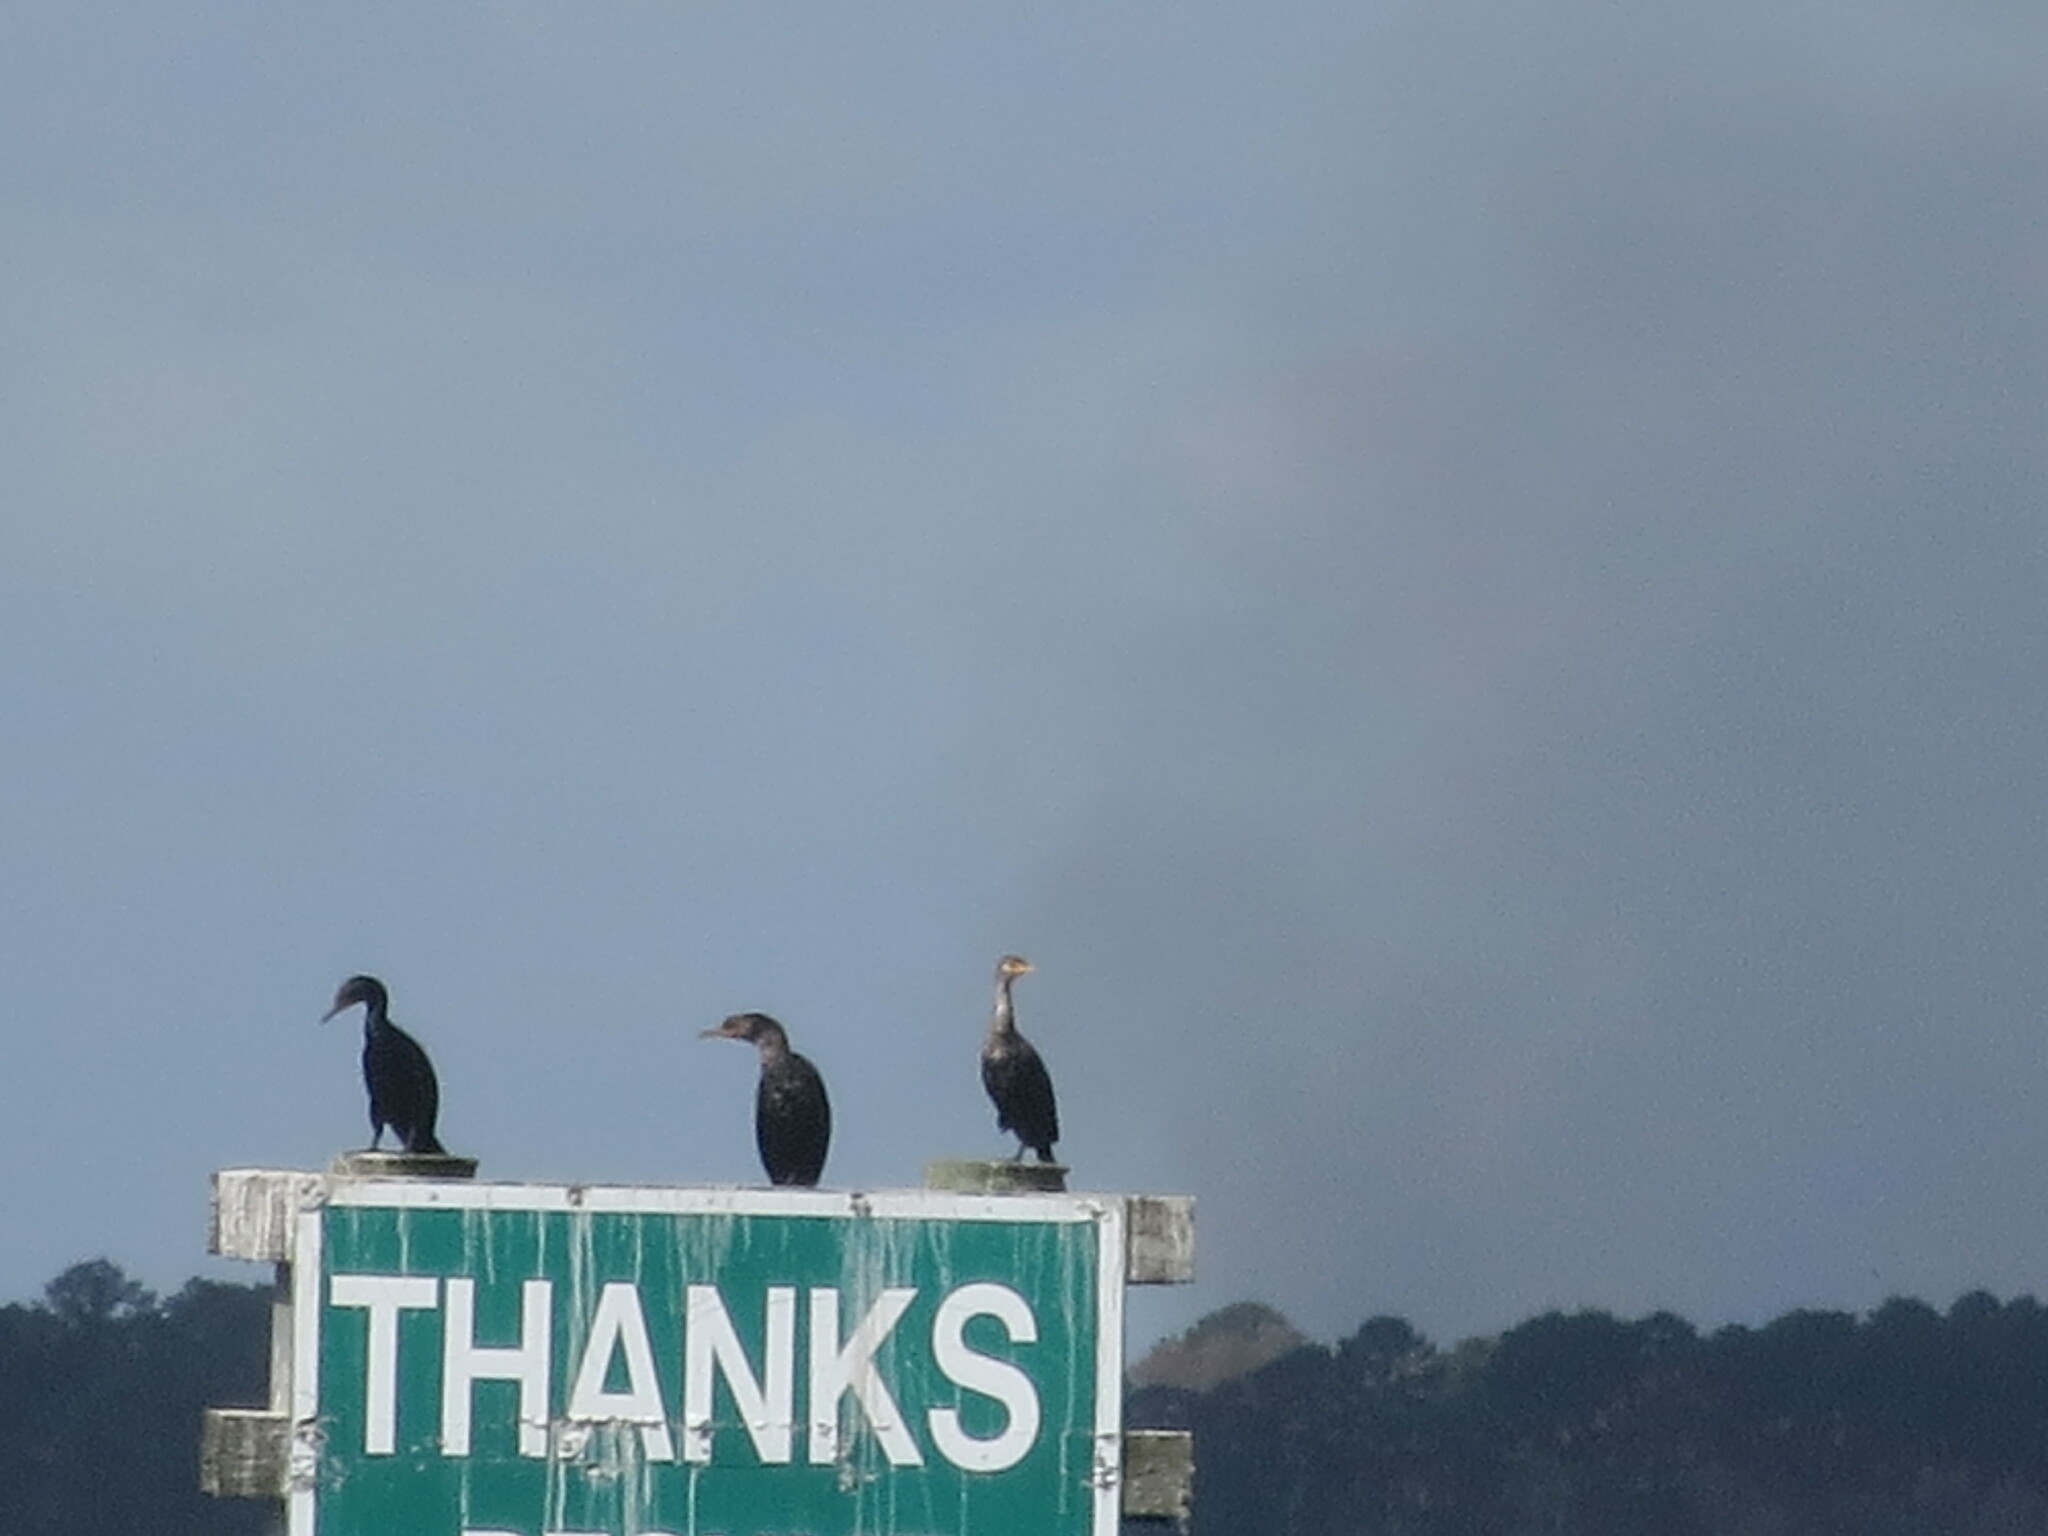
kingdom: Animalia
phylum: Chordata
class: Aves
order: Suliformes
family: Phalacrocoracidae
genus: Phalacrocorax
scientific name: Phalacrocorax auritus
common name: Double-crested cormorant
